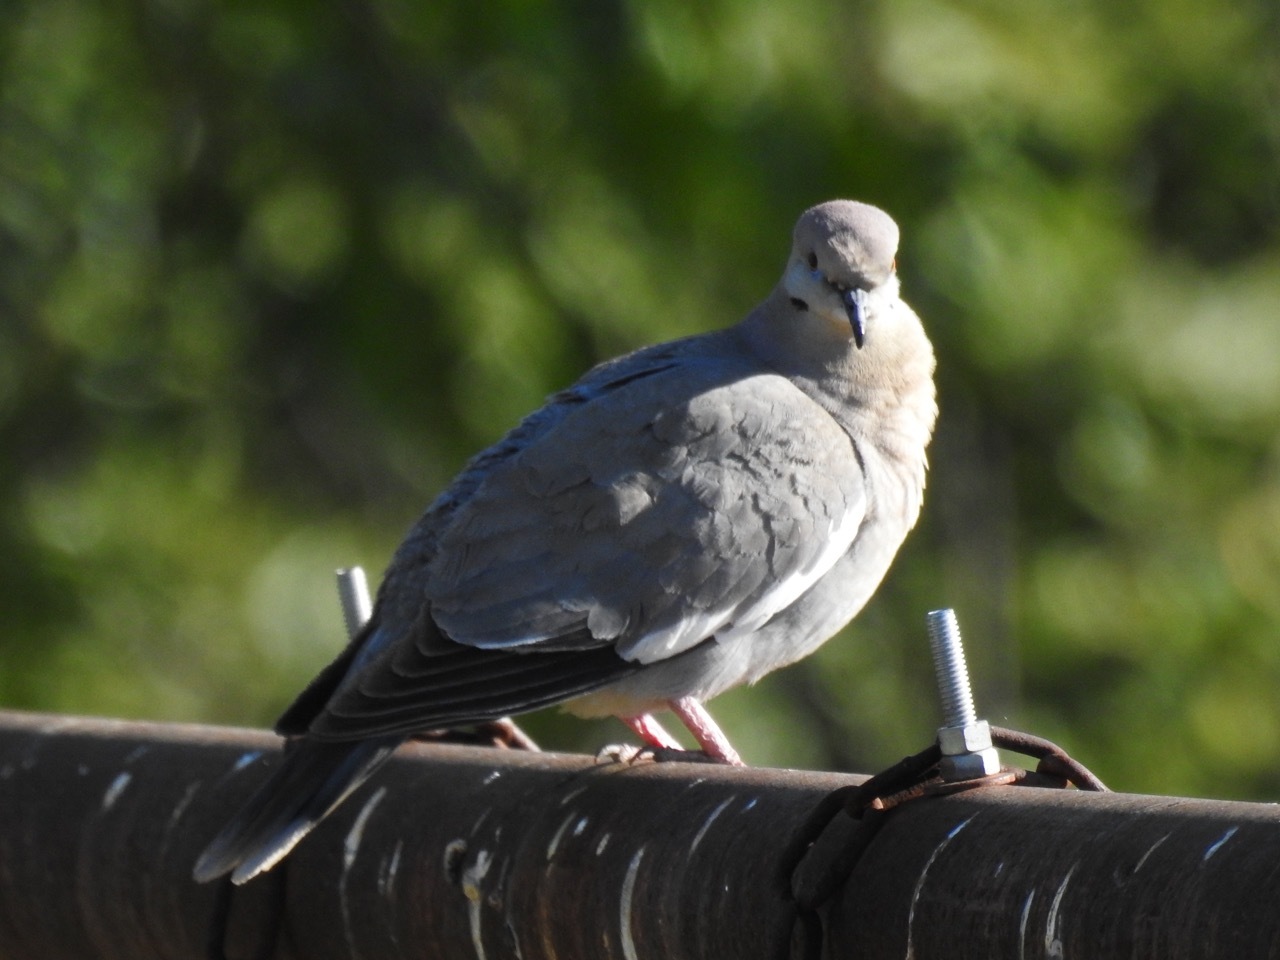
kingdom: Animalia
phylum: Chordata
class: Aves
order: Columbiformes
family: Columbidae
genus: Zenaida
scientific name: Zenaida asiatica
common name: White-winged dove
